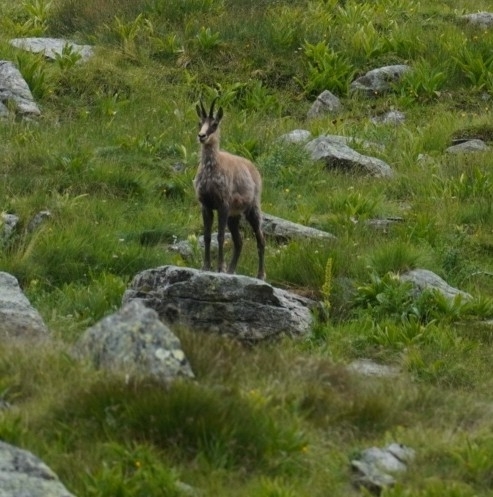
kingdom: Animalia
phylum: Chordata
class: Mammalia
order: Artiodactyla
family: Bovidae
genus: Rupicapra
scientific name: Rupicapra rupicapra
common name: Chamois
